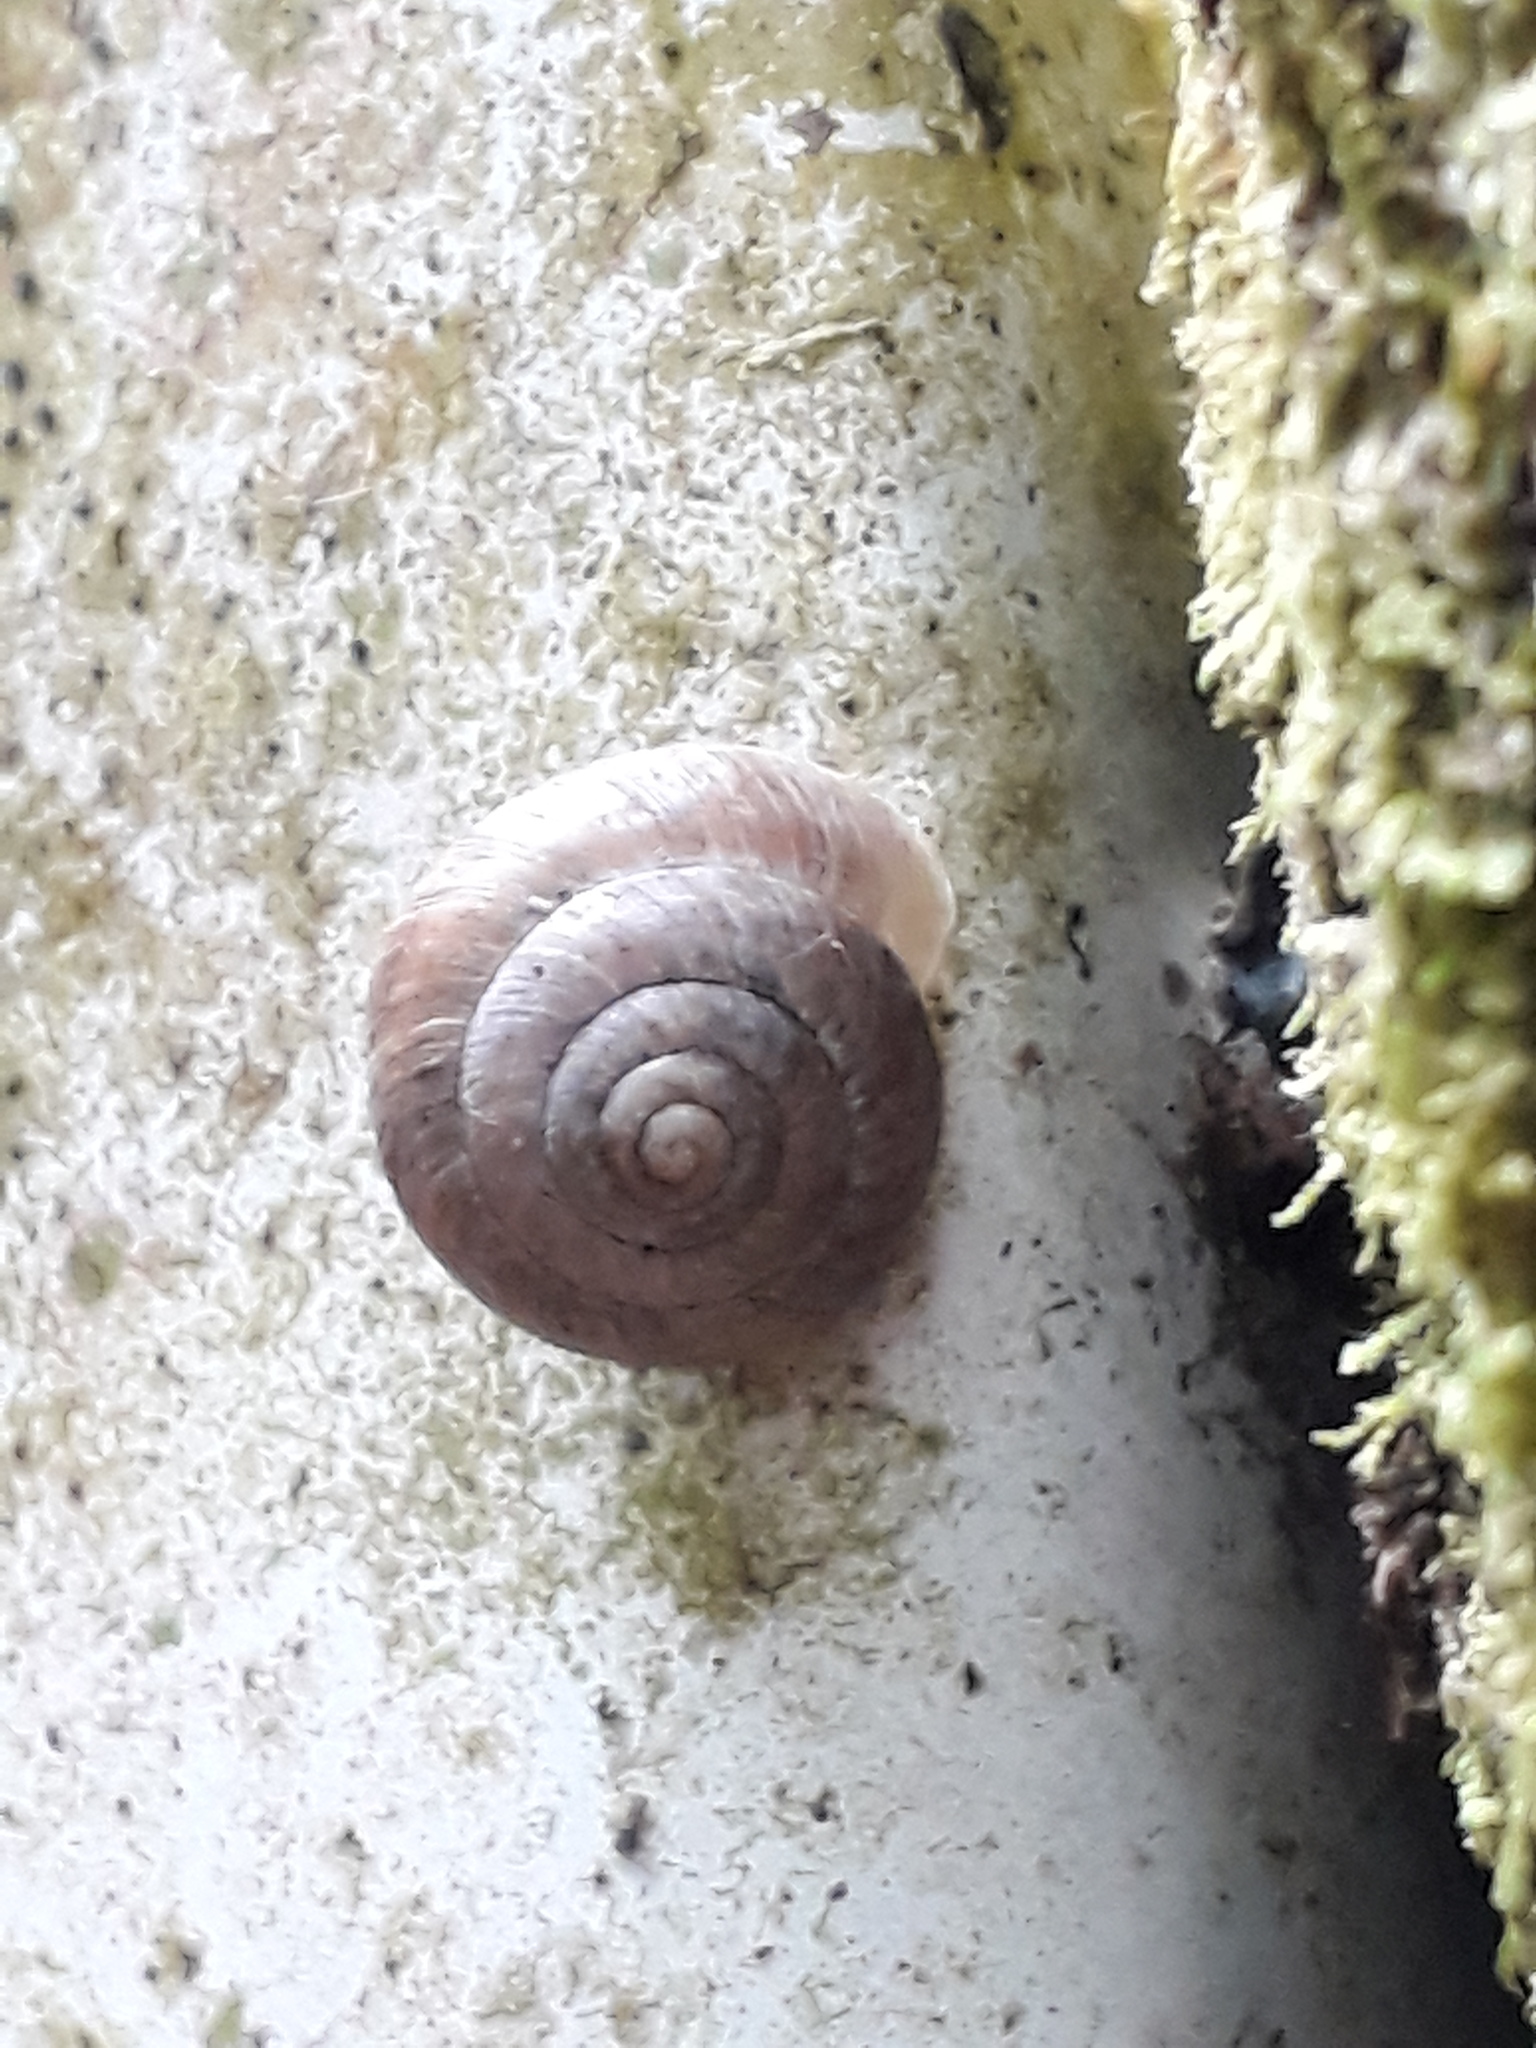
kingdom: Animalia
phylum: Mollusca
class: Gastropoda
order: Stylommatophora
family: Charopidae
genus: Serpho
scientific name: Serpho
